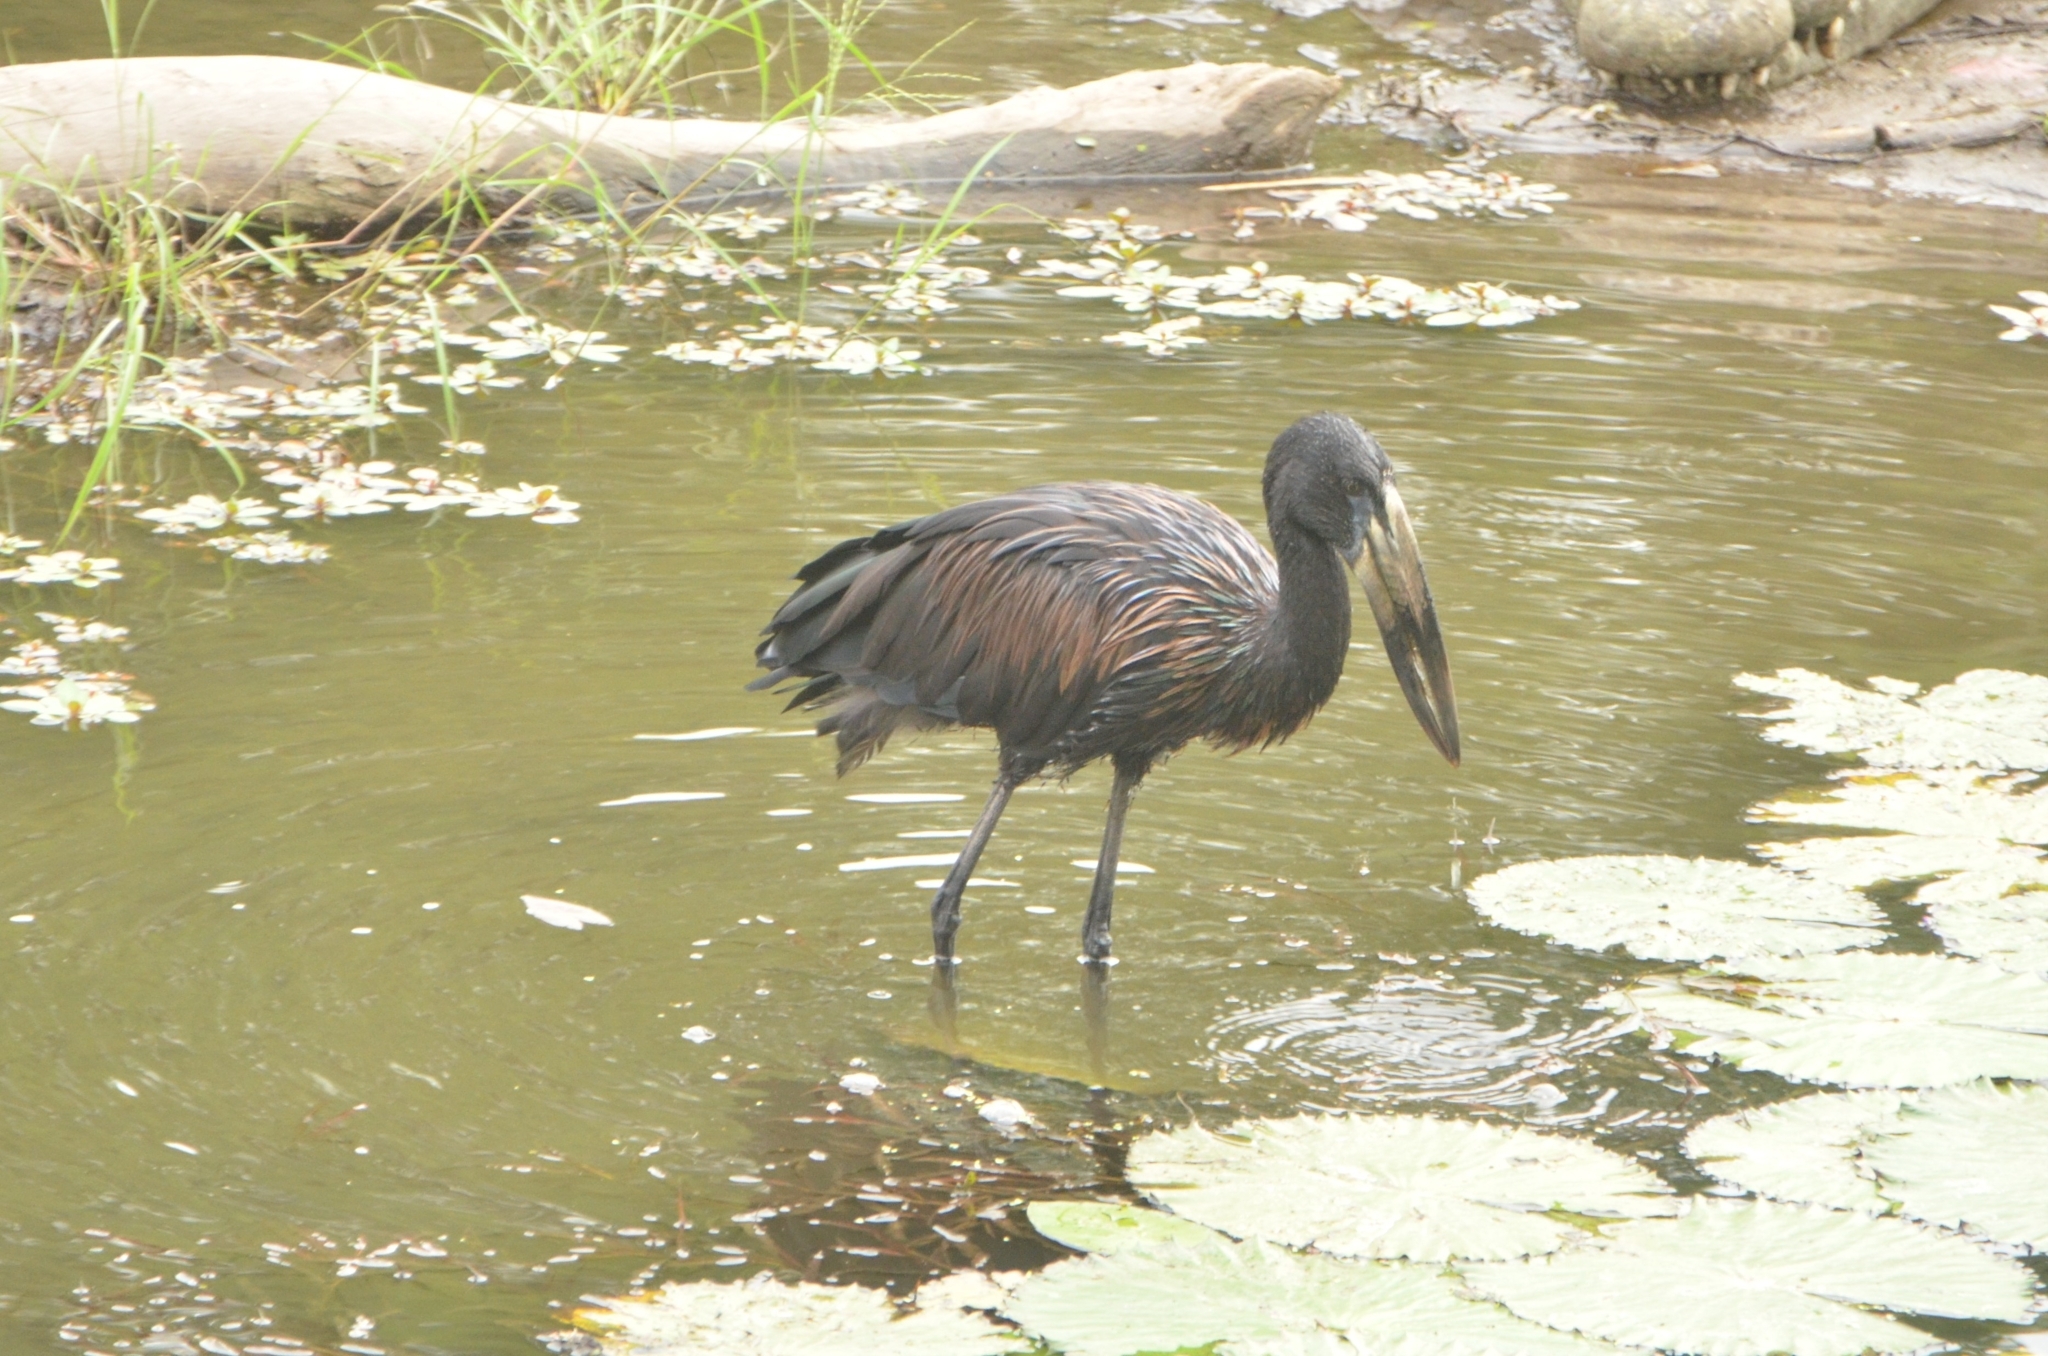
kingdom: Animalia
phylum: Chordata
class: Aves
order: Ciconiiformes
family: Ciconiidae
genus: Anastomus
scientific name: Anastomus lamelligerus
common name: African openbill
